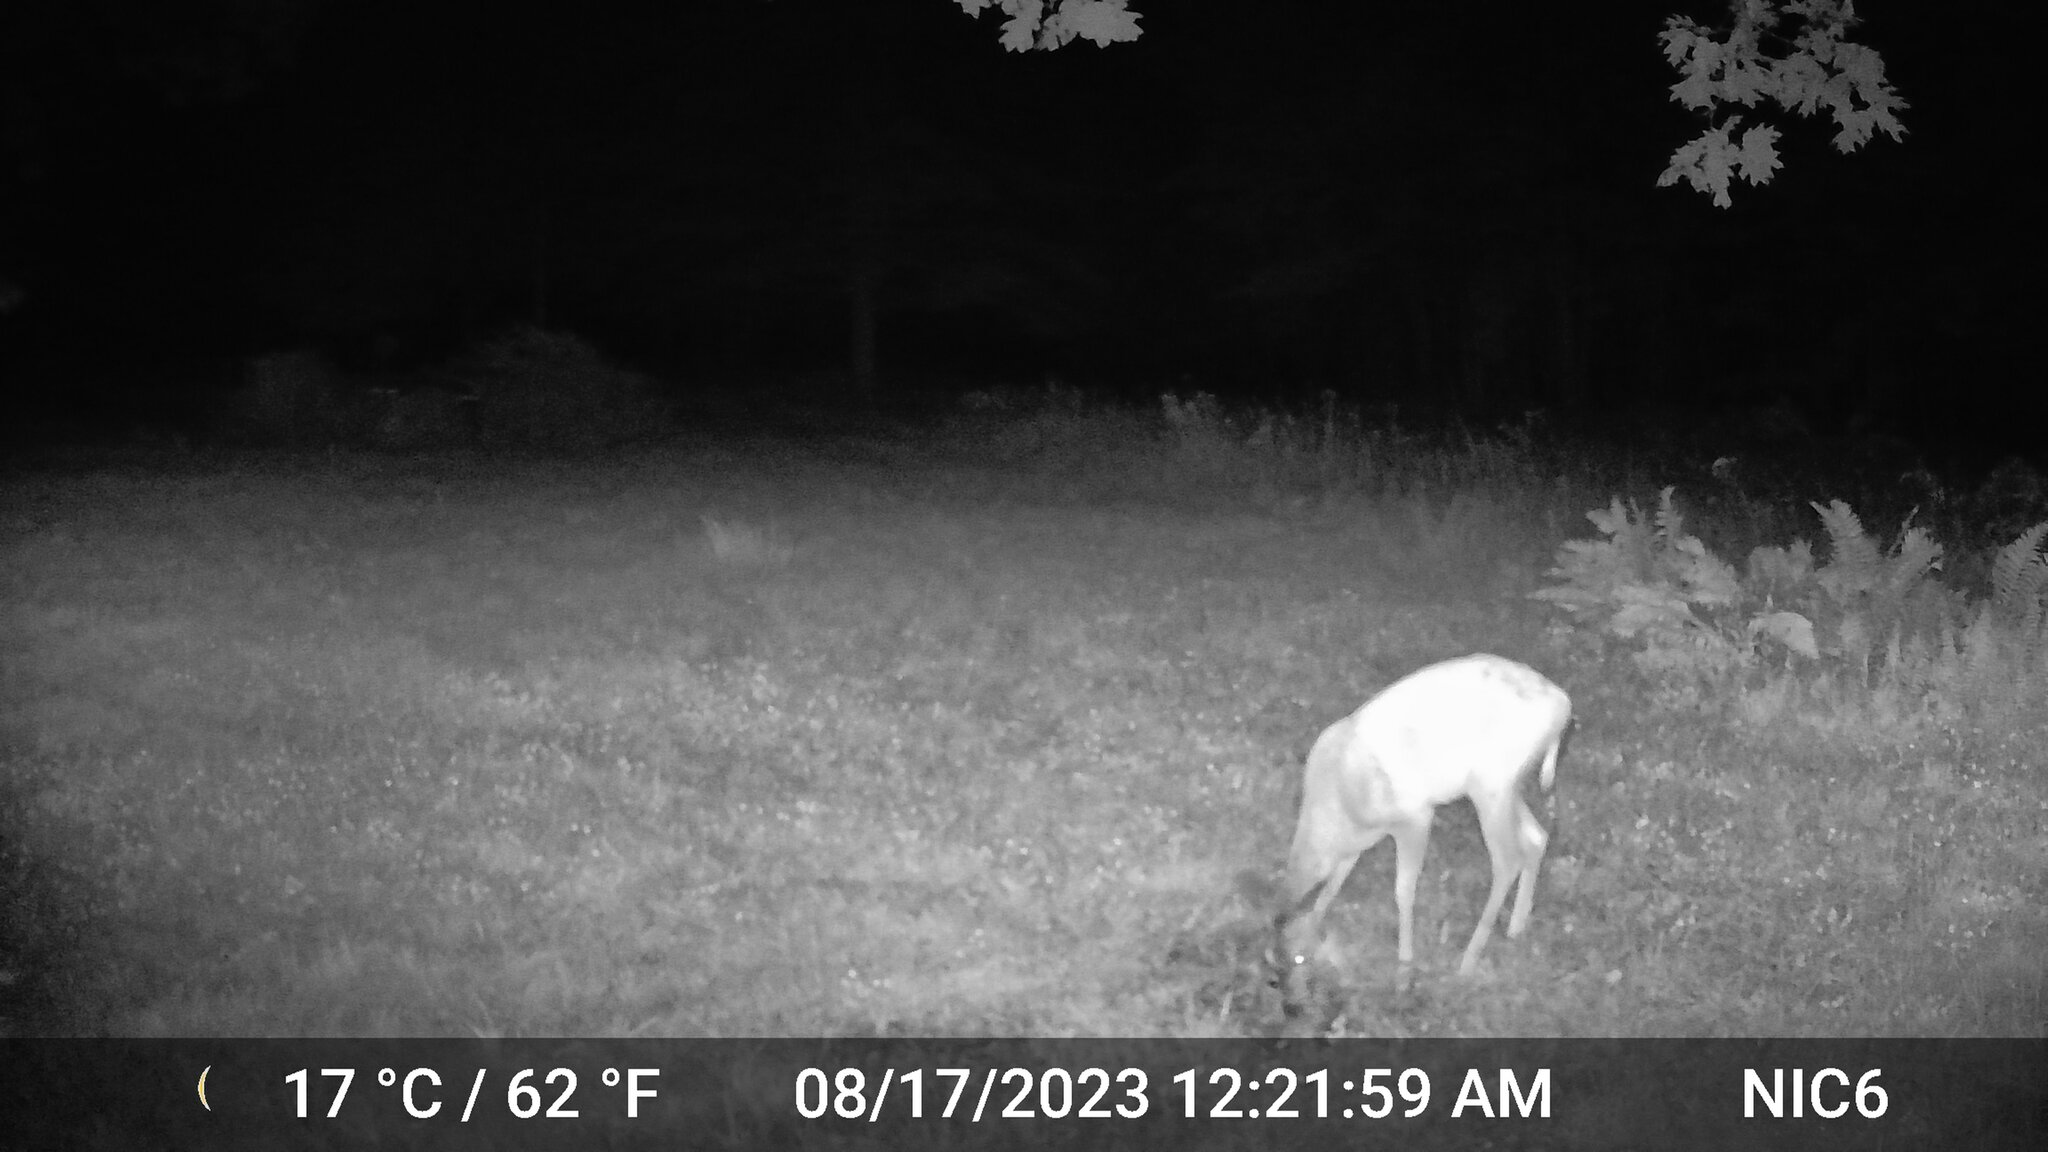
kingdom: Animalia
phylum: Chordata
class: Mammalia
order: Artiodactyla
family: Cervidae
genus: Odocoileus
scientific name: Odocoileus virginianus
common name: White-tailed deer
